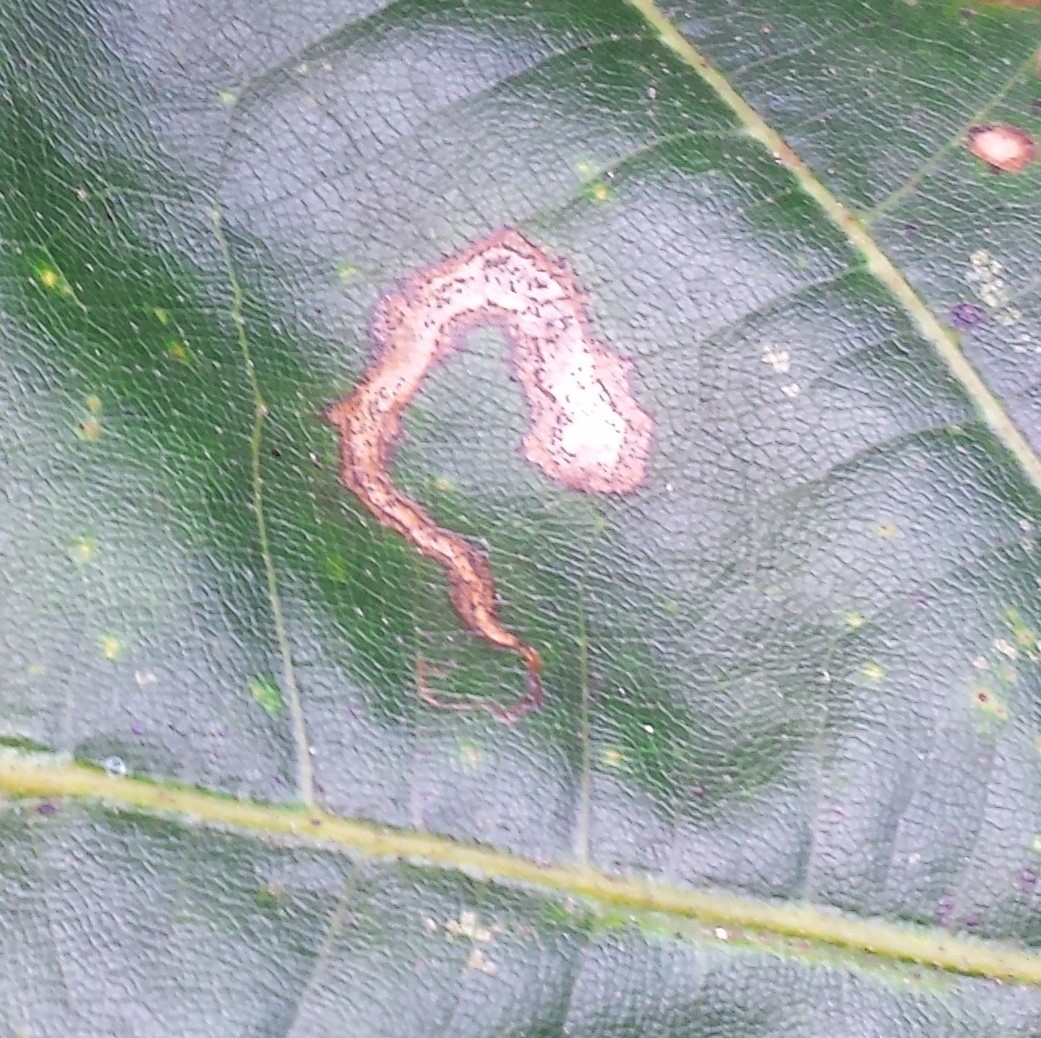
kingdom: Animalia
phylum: Arthropoda
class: Insecta
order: Lepidoptera
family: Nepticulidae
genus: Stigmella
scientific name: Stigmella quercipulchella
